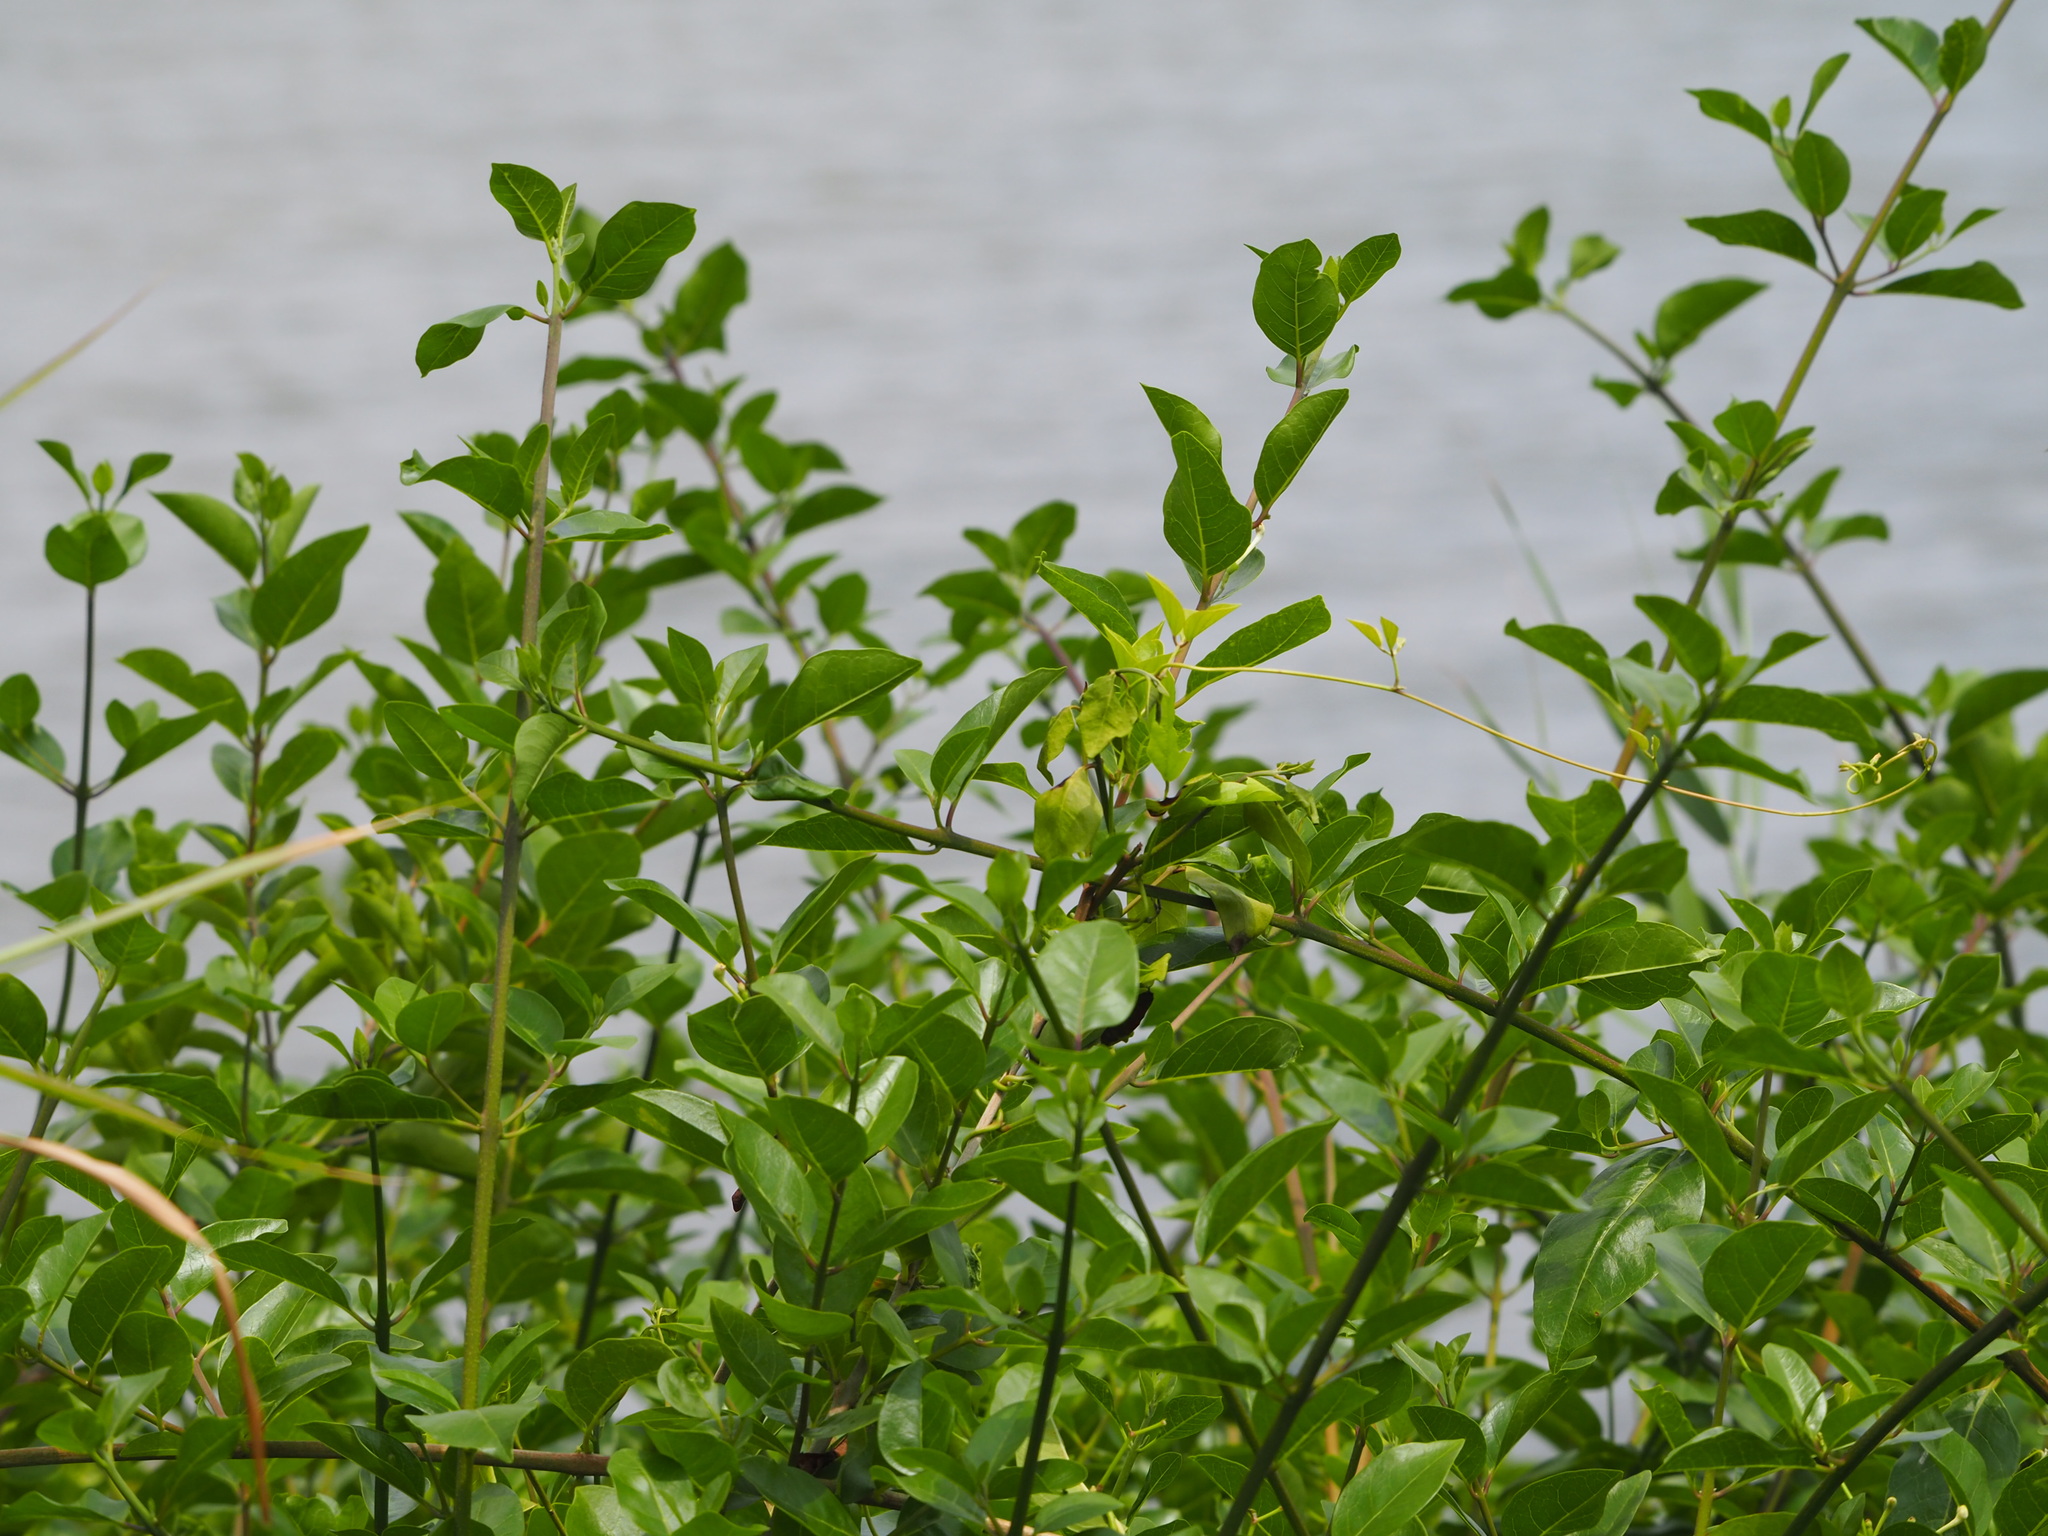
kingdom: Plantae
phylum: Tracheophyta
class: Magnoliopsida
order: Lamiales
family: Lamiaceae
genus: Volkameria
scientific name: Volkameria inermis
